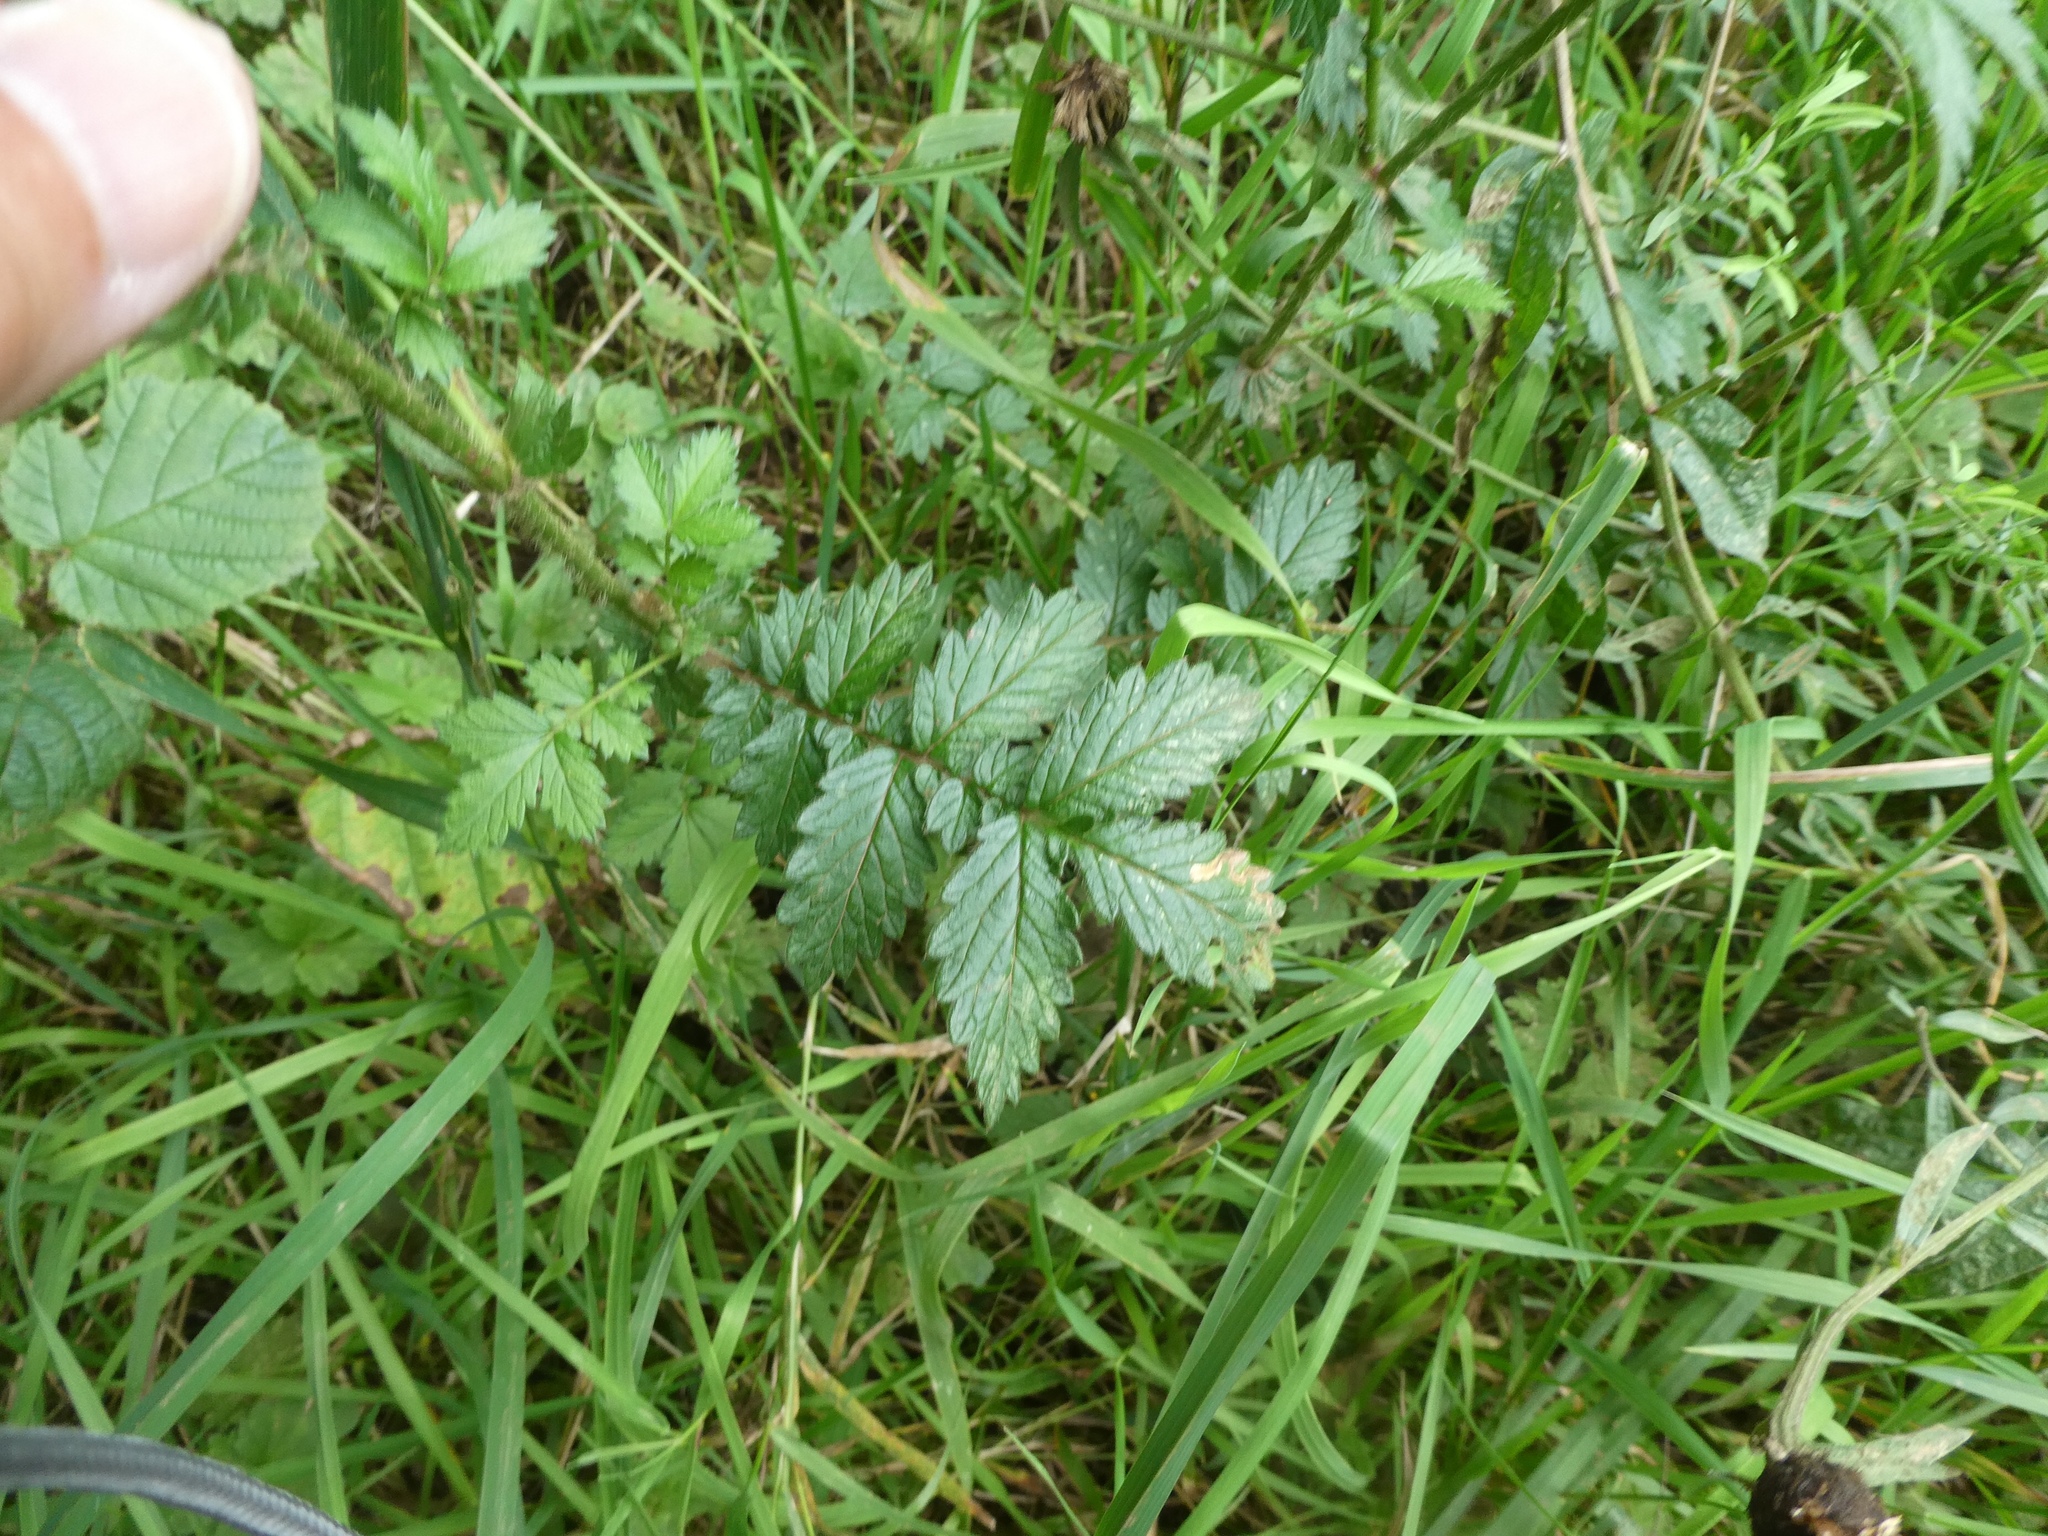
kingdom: Plantae
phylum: Tracheophyta
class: Magnoliopsida
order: Rosales
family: Rosaceae
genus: Agrimonia
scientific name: Agrimonia eupatoria
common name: Agrimony
